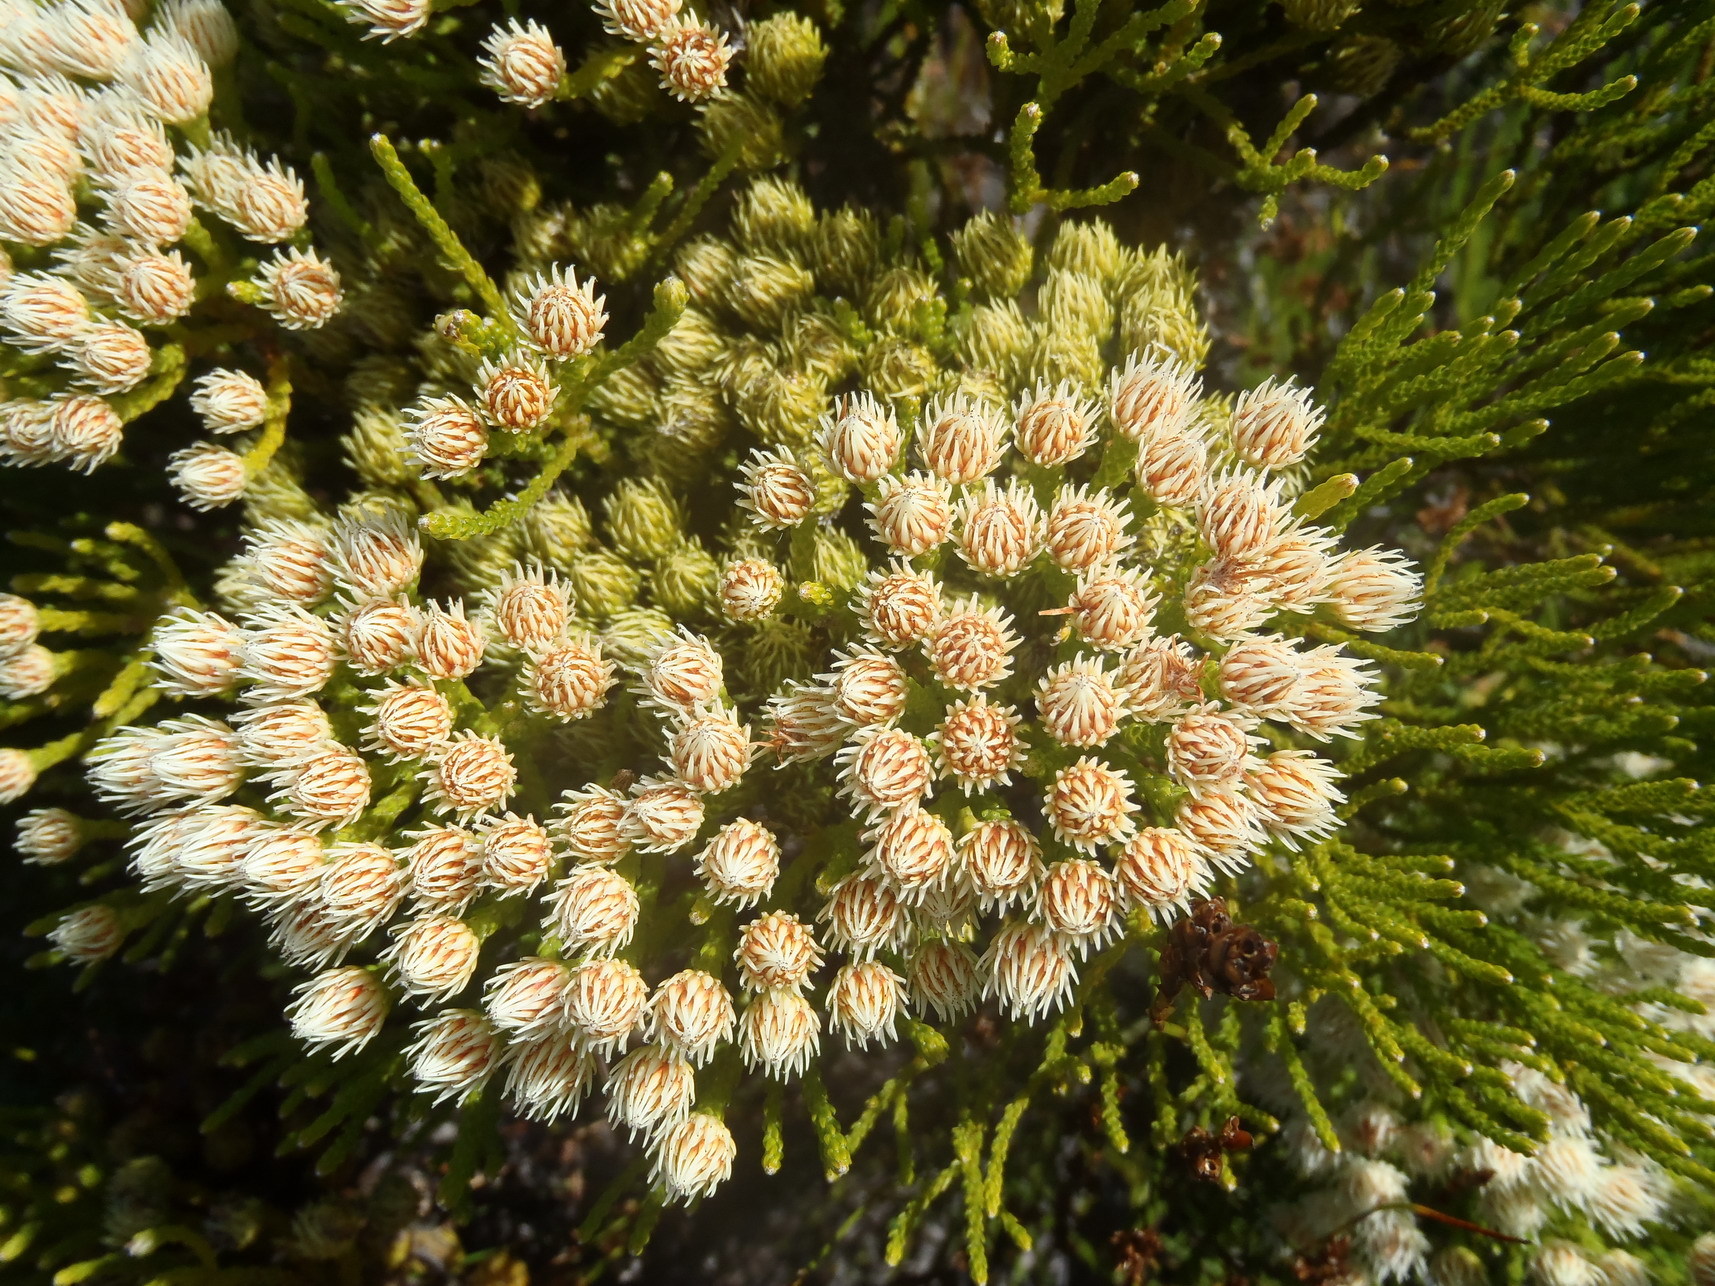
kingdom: Plantae
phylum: Tracheophyta
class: Magnoliopsida
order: Bruniales
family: Bruniaceae
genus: Brunia
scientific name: Brunia paleacea
